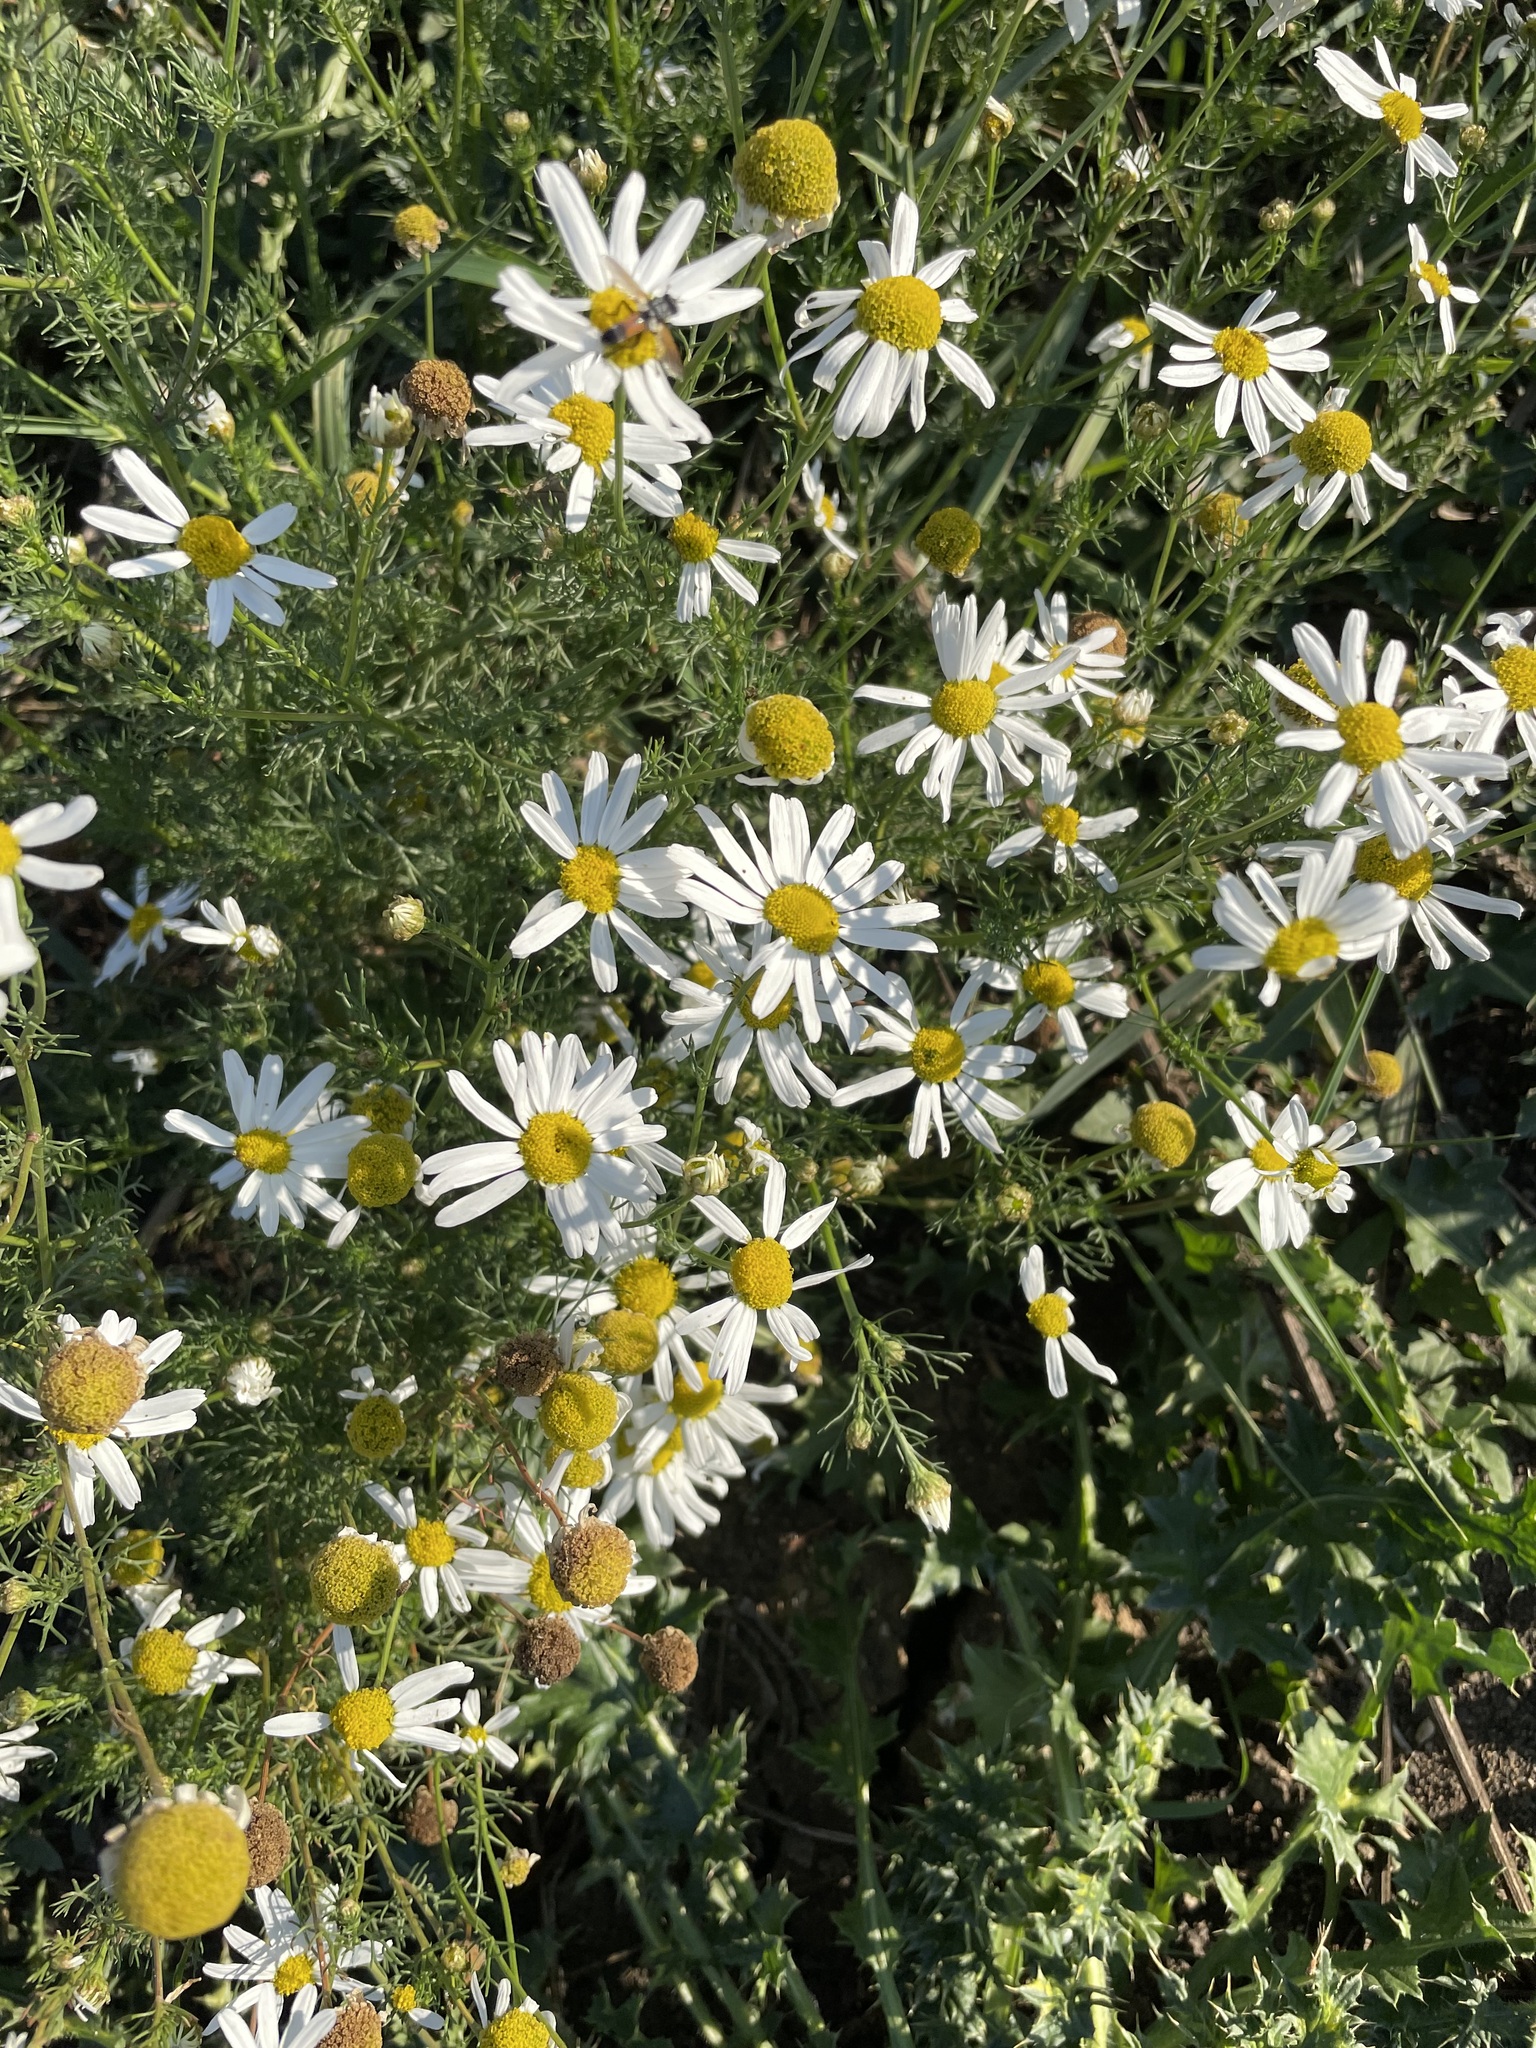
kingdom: Plantae
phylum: Tracheophyta
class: Magnoliopsida
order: Asterales
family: Asteraceae
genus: Tripleurospermum
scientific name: Tripleurospermum inodorum
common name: Scentless mayweed
